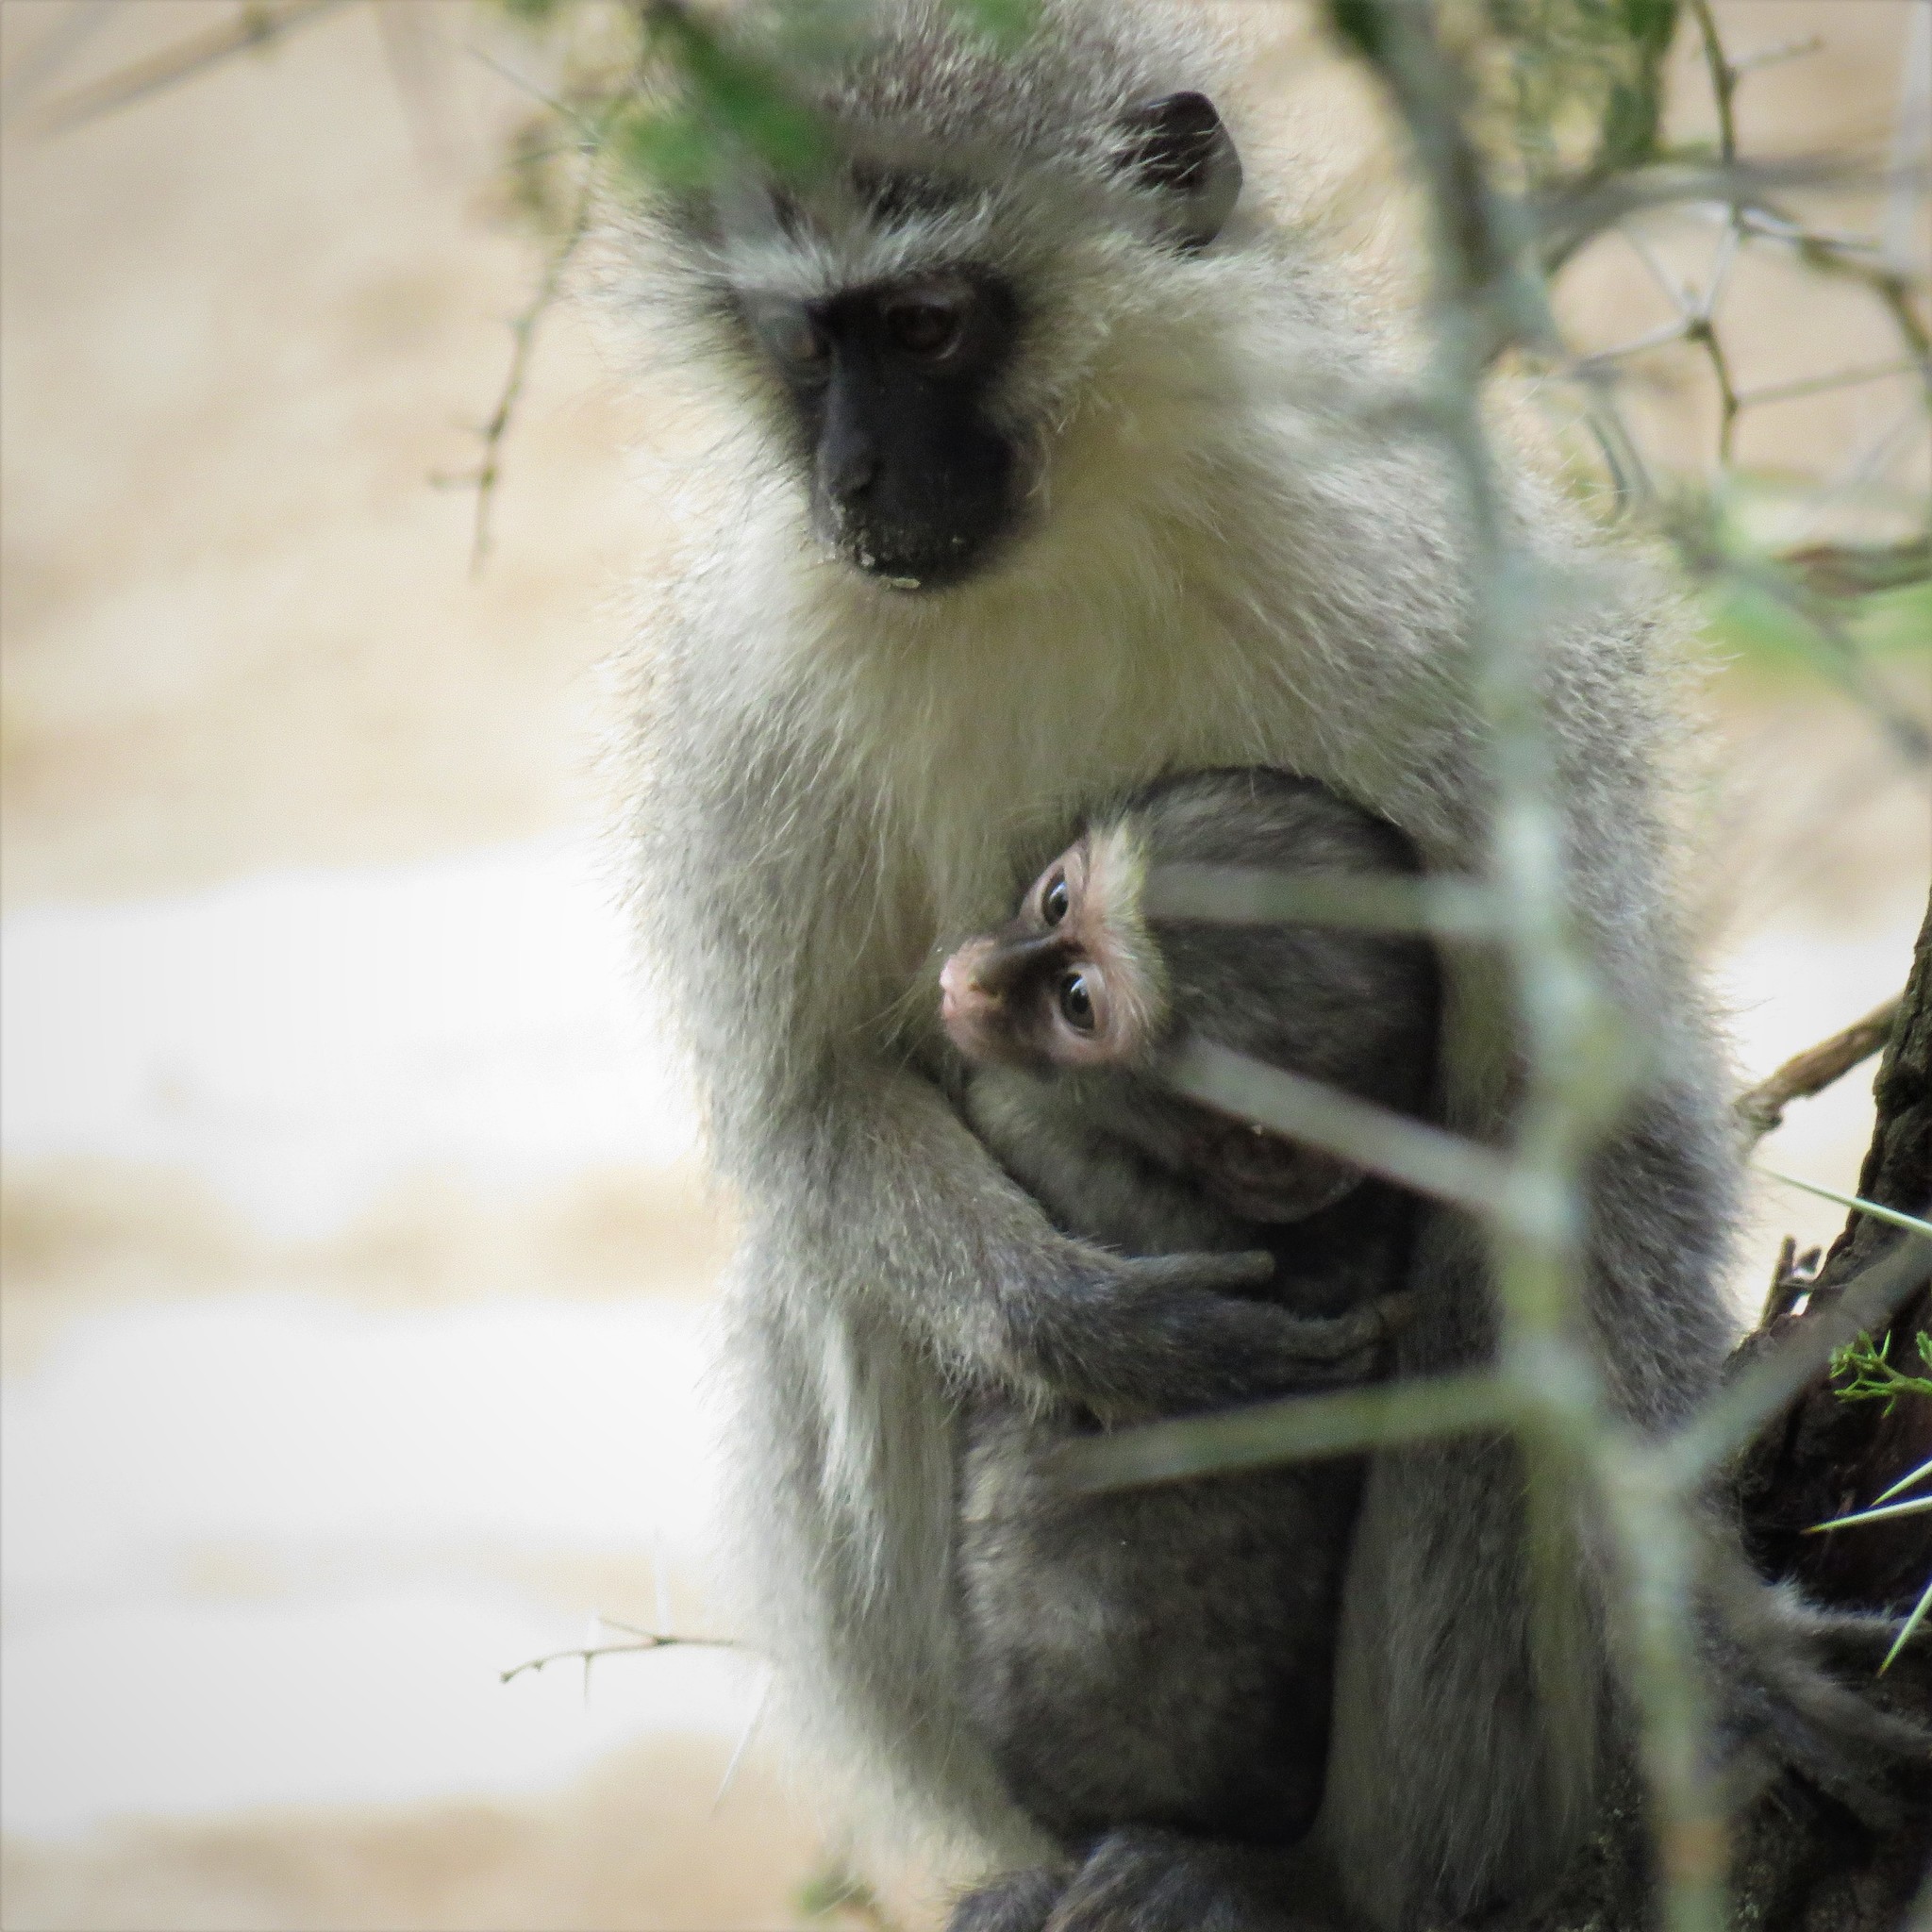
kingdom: Animalia
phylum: Chordata
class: Mammalia
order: Primates
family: Cercopithecidae
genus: Chlorocebus
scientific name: Chlorocebus pygerythrus
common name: Vervet monkey
